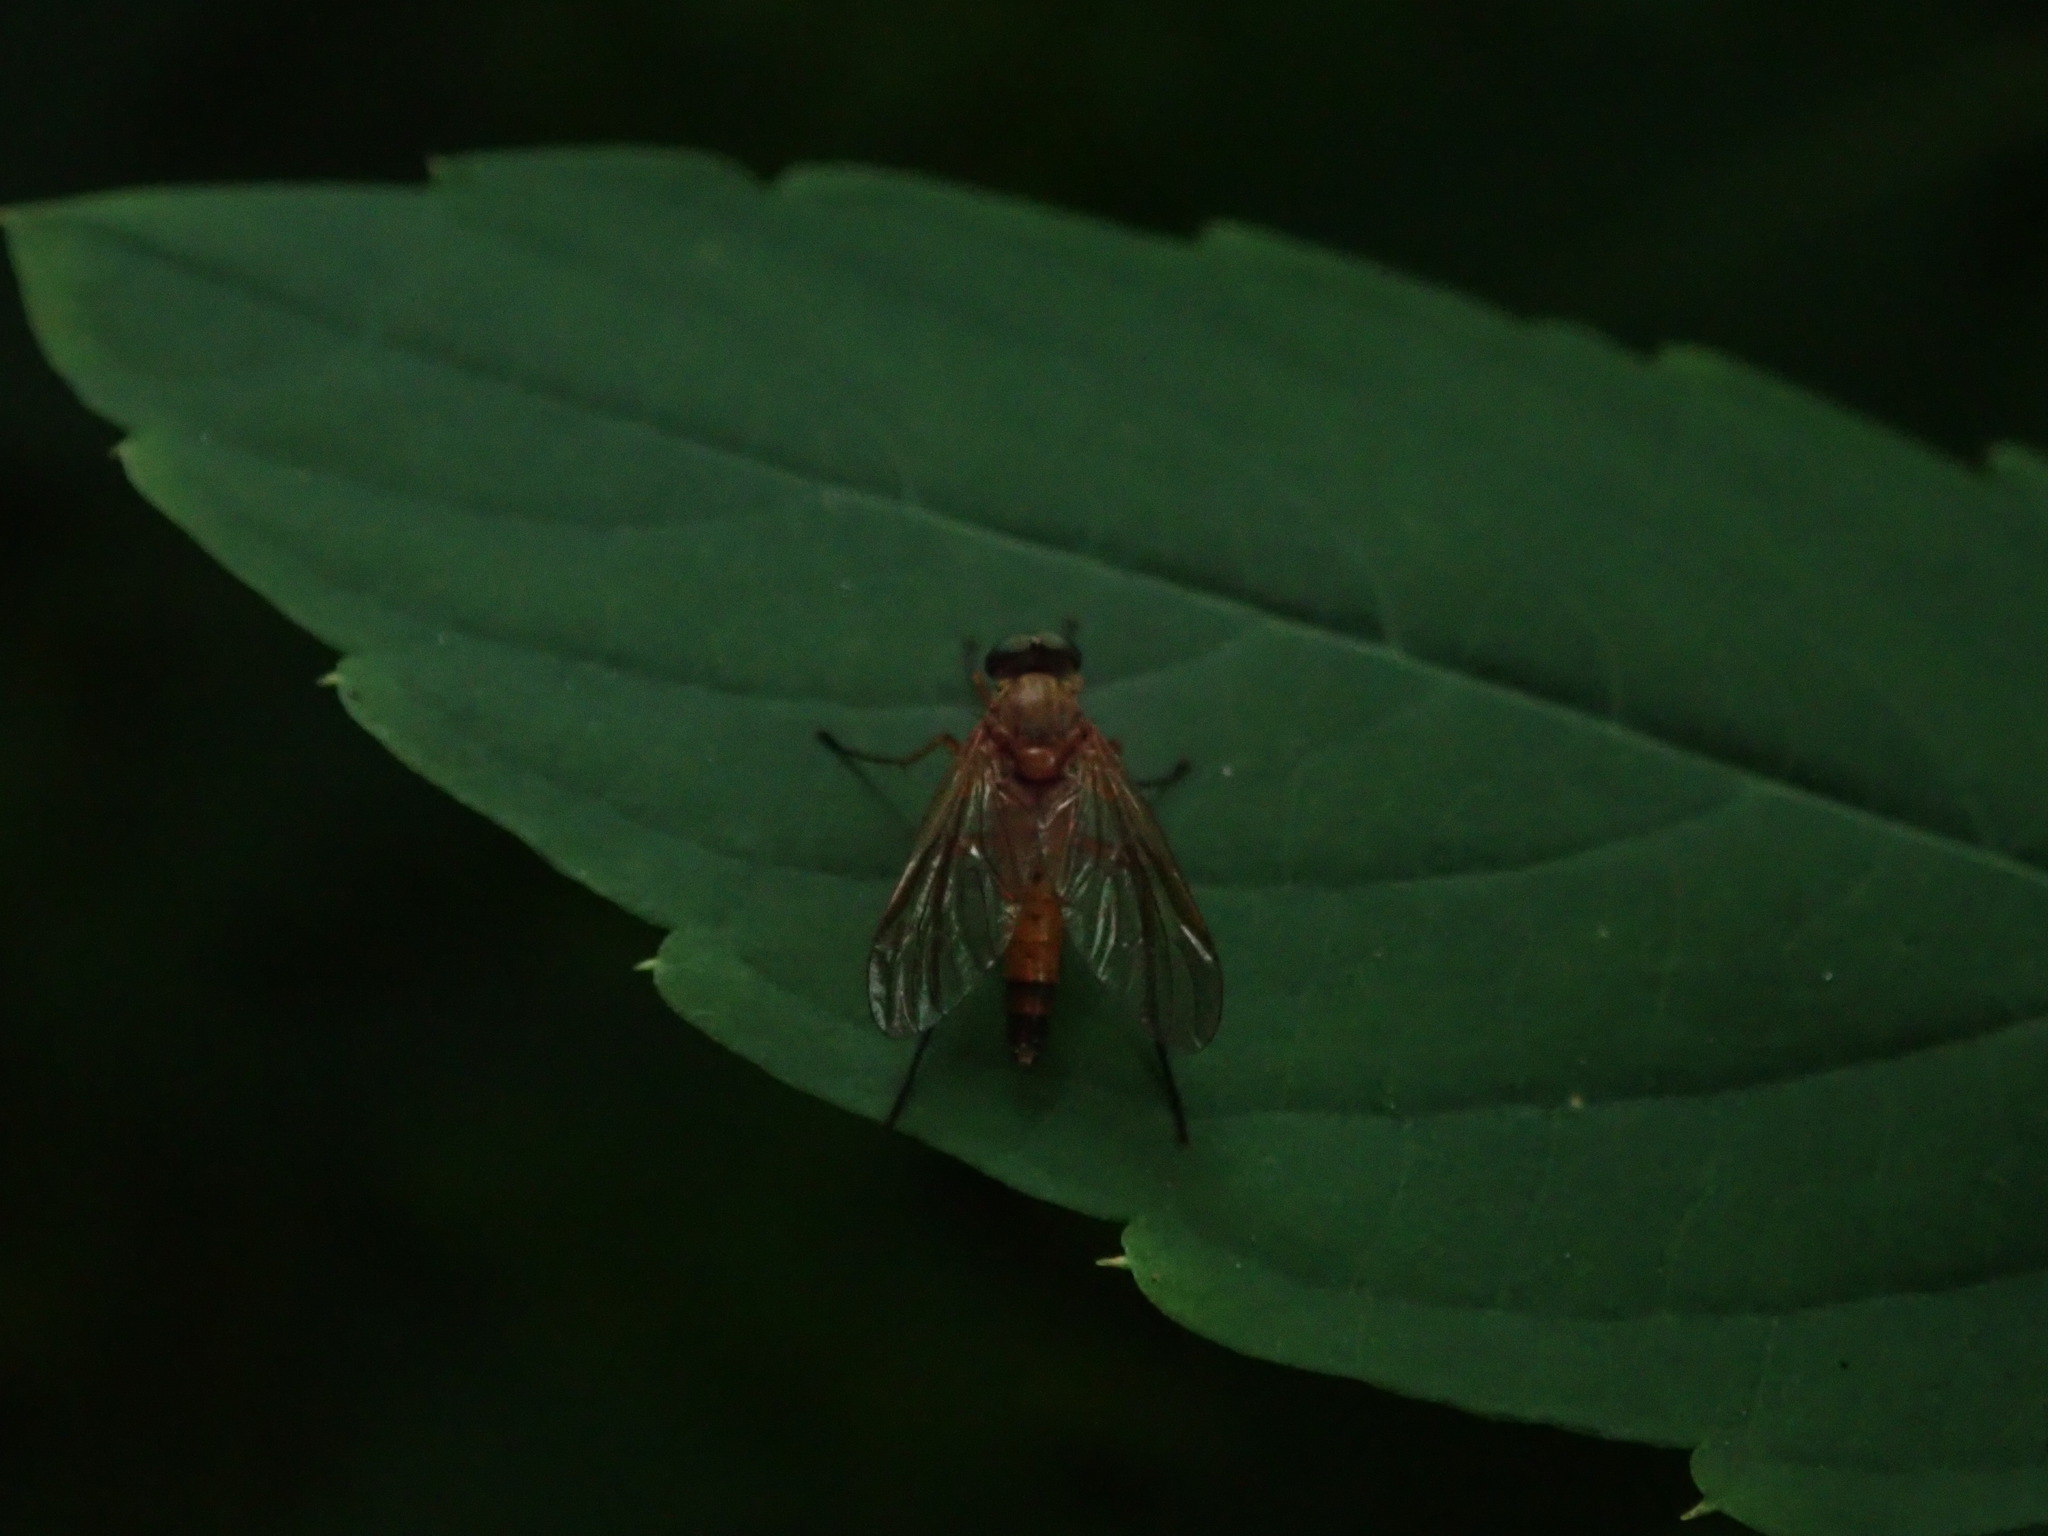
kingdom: Animalia
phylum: Arthropoda
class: Insecta
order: Diptera
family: Rhagionidae
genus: Rhagio
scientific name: Rhagio tringaria
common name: Marsh snipefly
